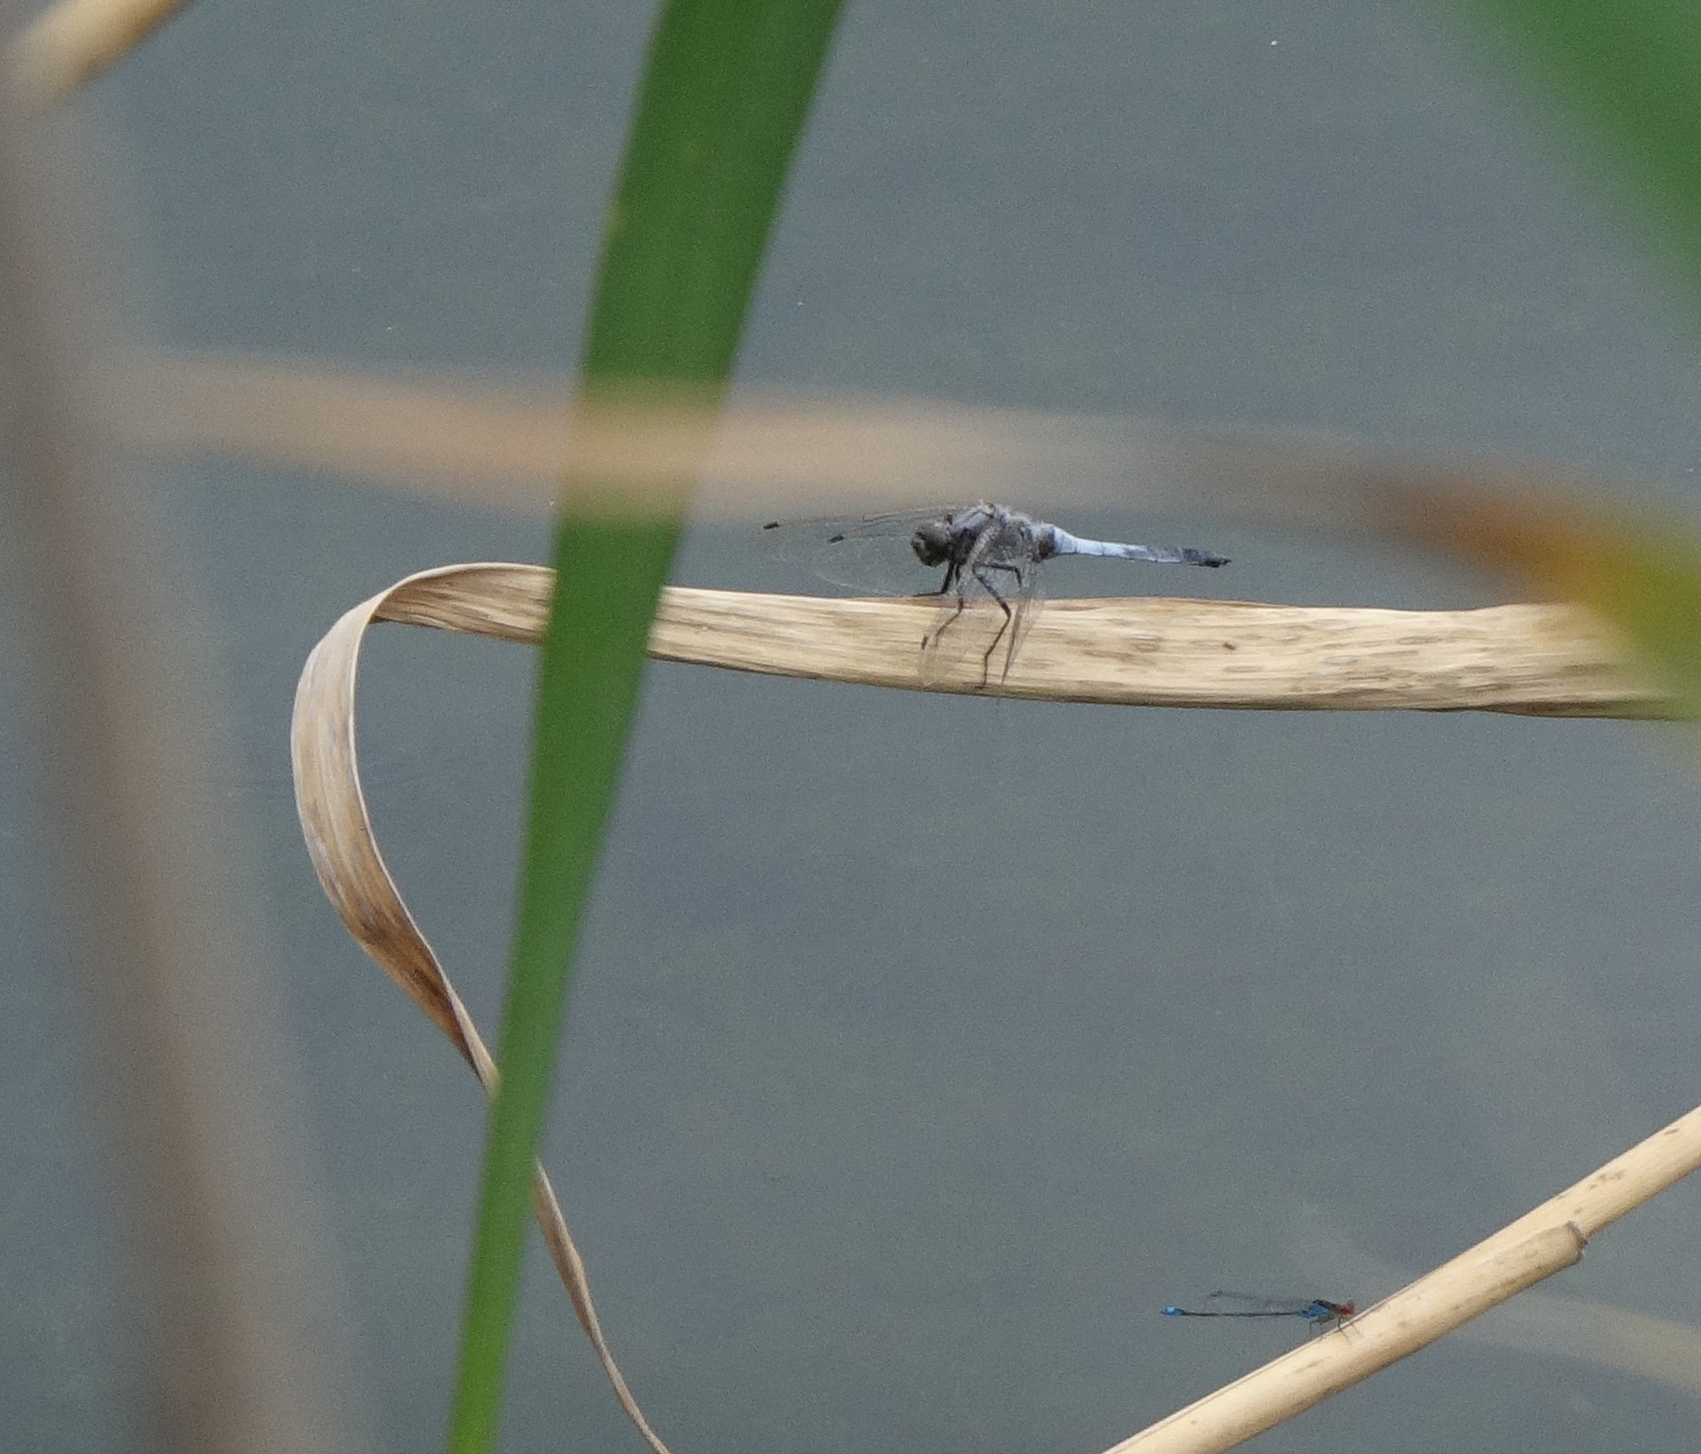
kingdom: Animalia
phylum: Arthropoda
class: Insecta
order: Odonata
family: Libellulidae
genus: Orthetrum
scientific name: Orthetrum cancellatum
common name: Black-tailed skimmer
